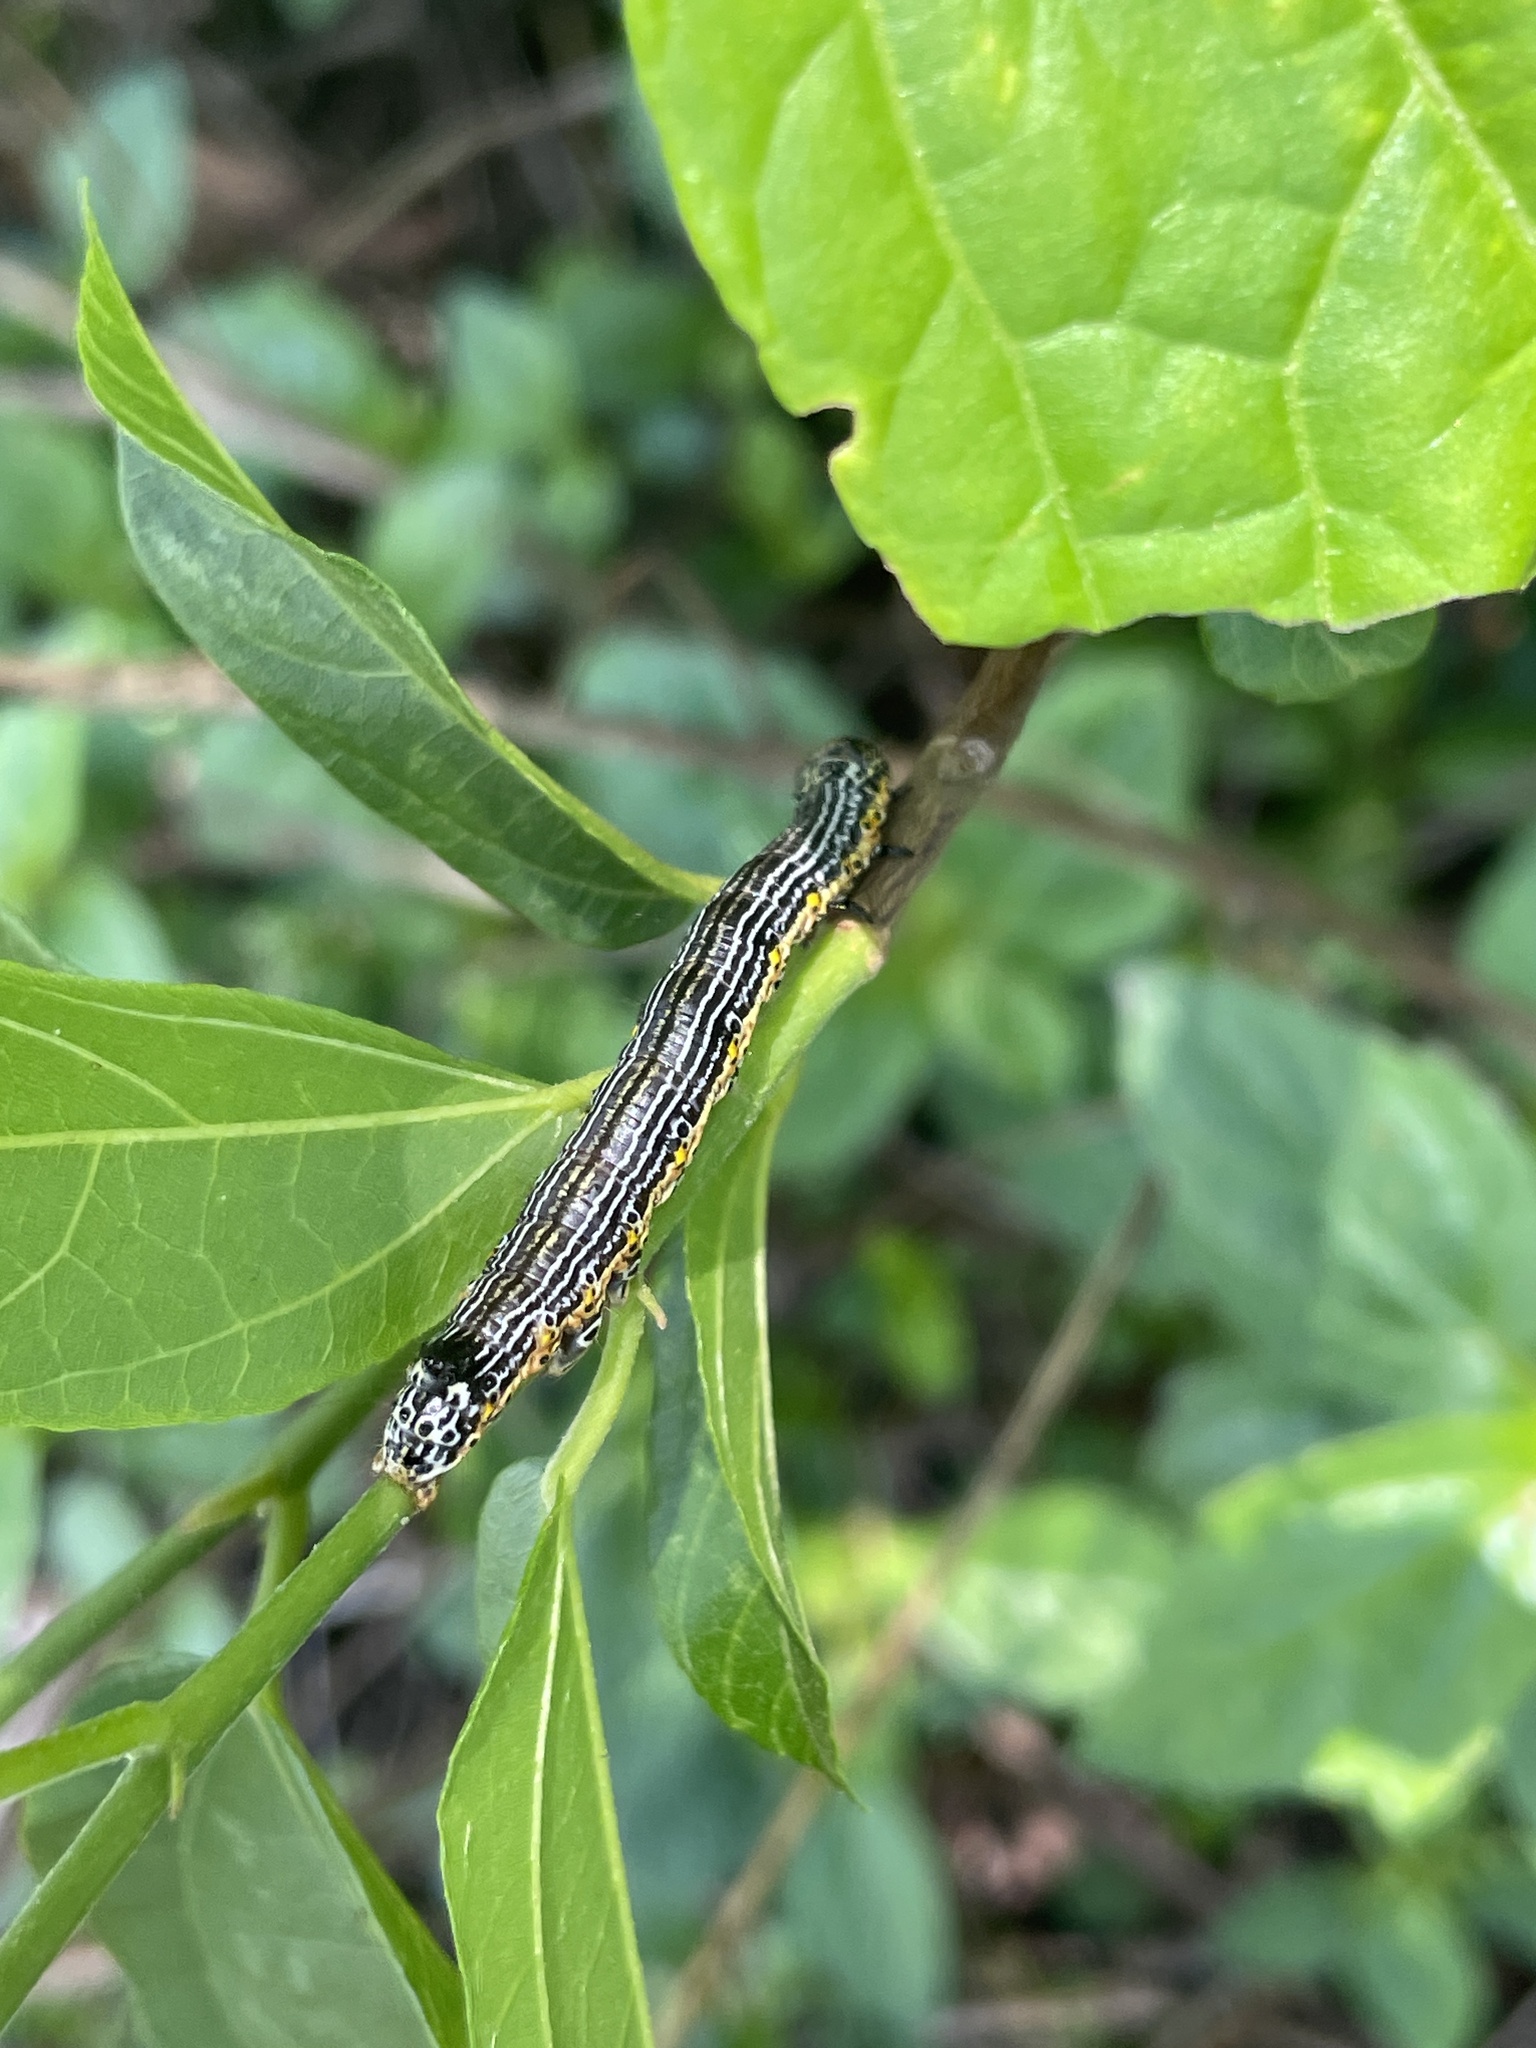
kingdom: Animalia
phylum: Arthropoda
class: Insecta
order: Lepidoptera
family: Noctuidae
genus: Athetis
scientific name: Athetis ochracea
